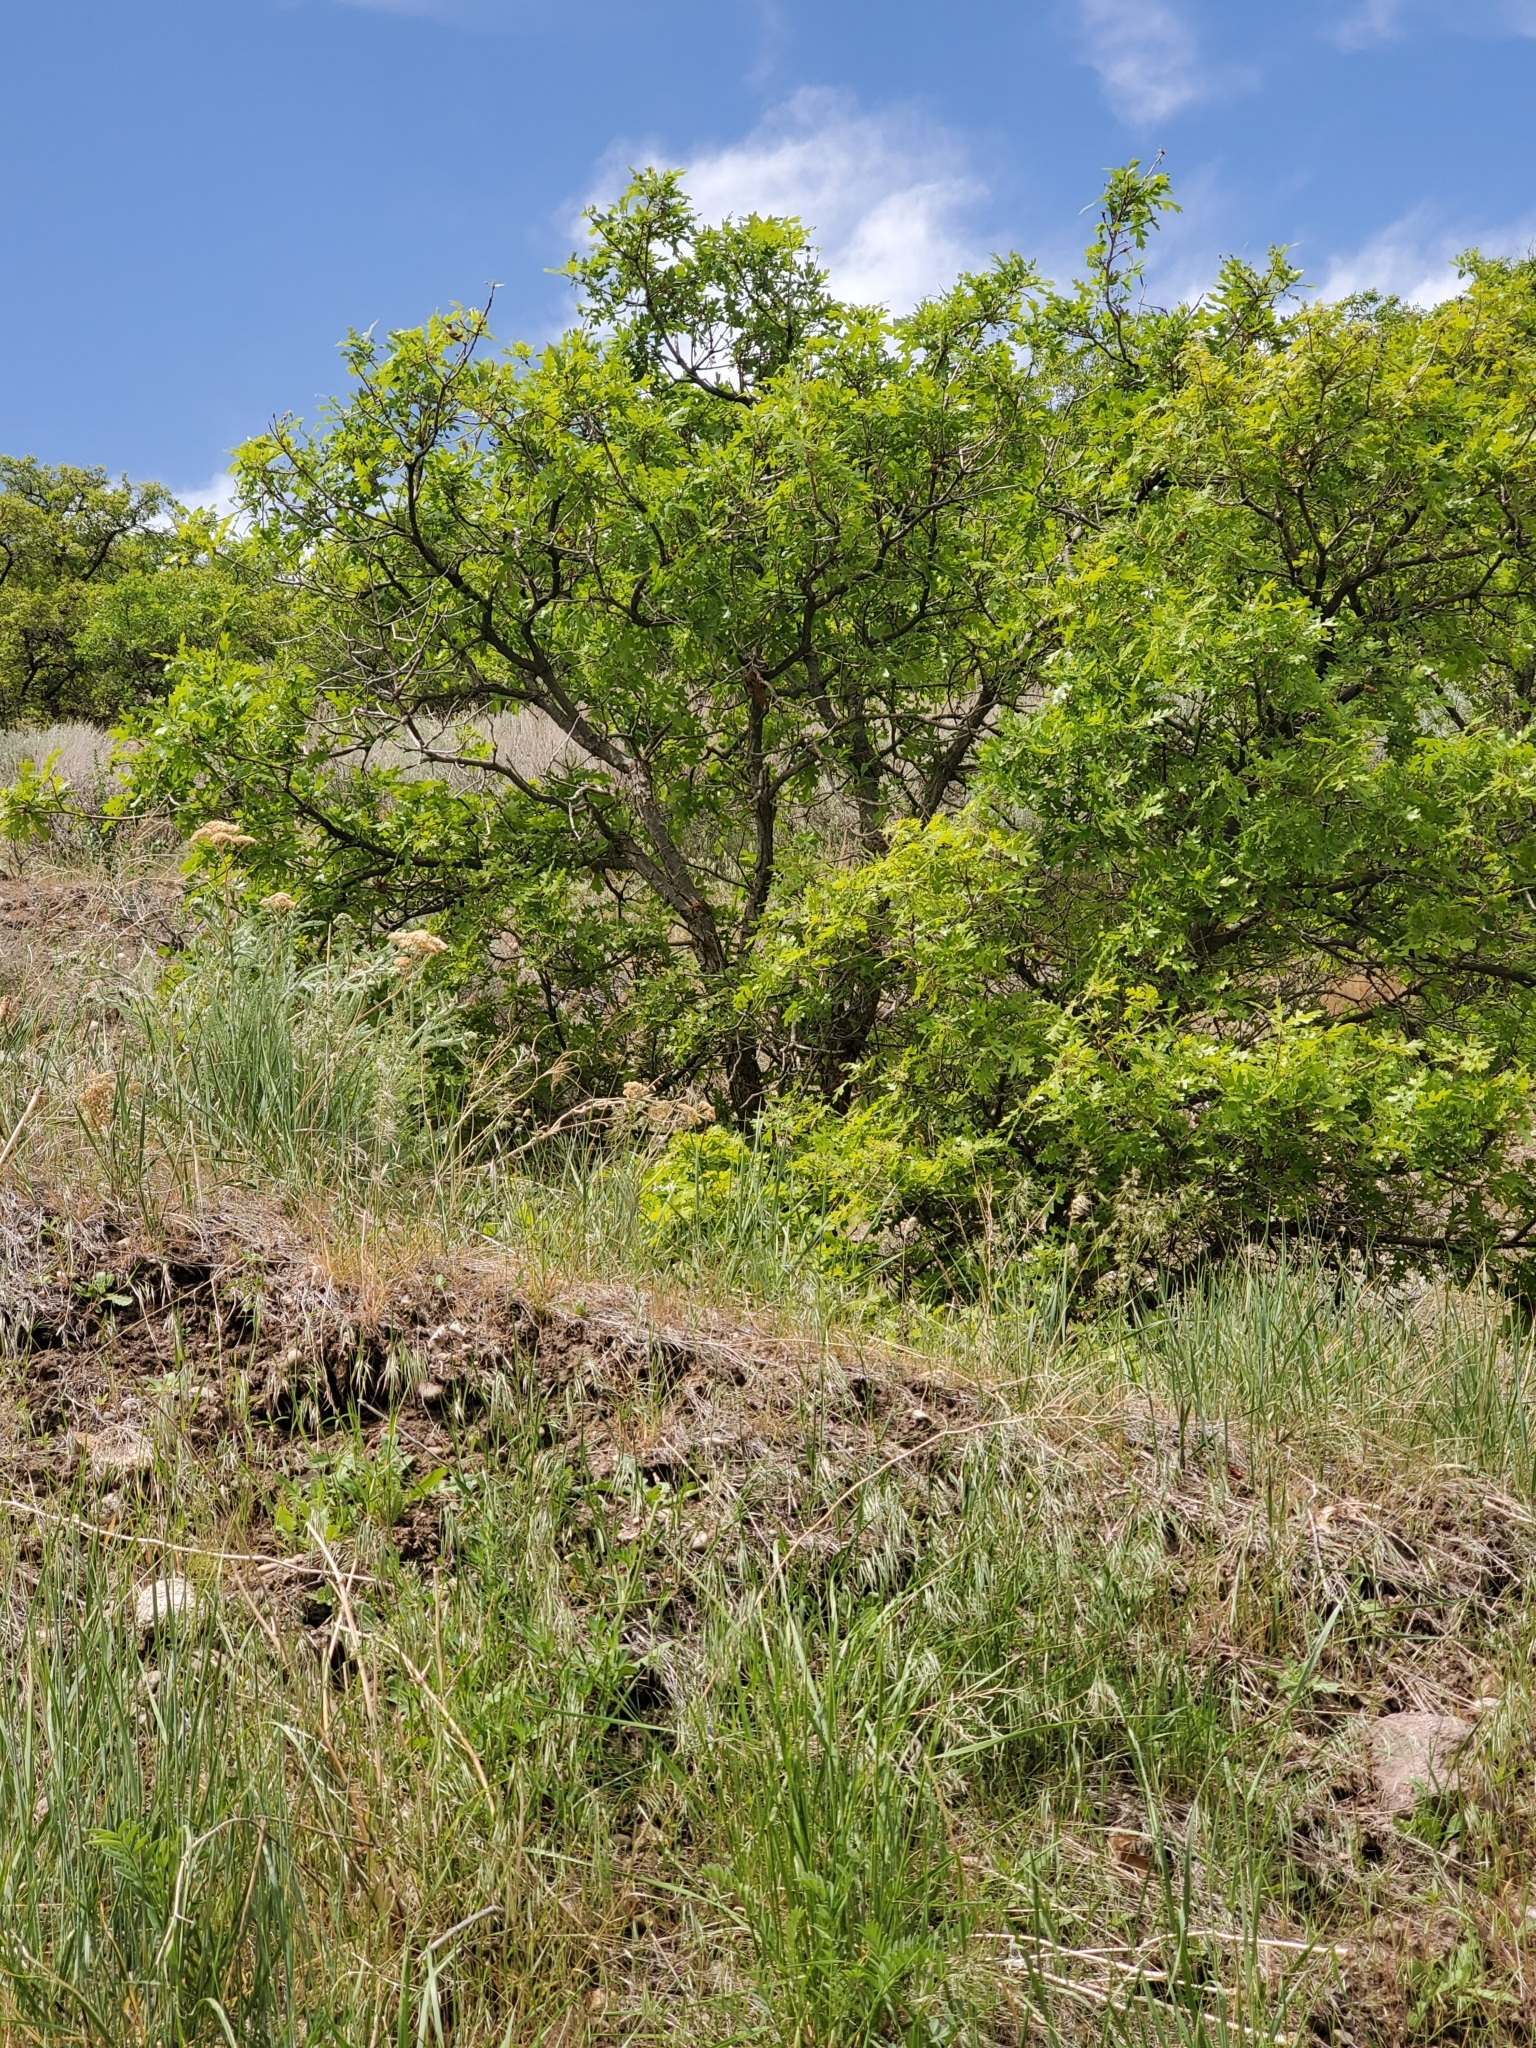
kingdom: Plantae
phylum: Tracheophyta
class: Magnoliopsida
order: Fagales
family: Fagaceae
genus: Quercus
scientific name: Quercus gambelii
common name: Gambel oak
